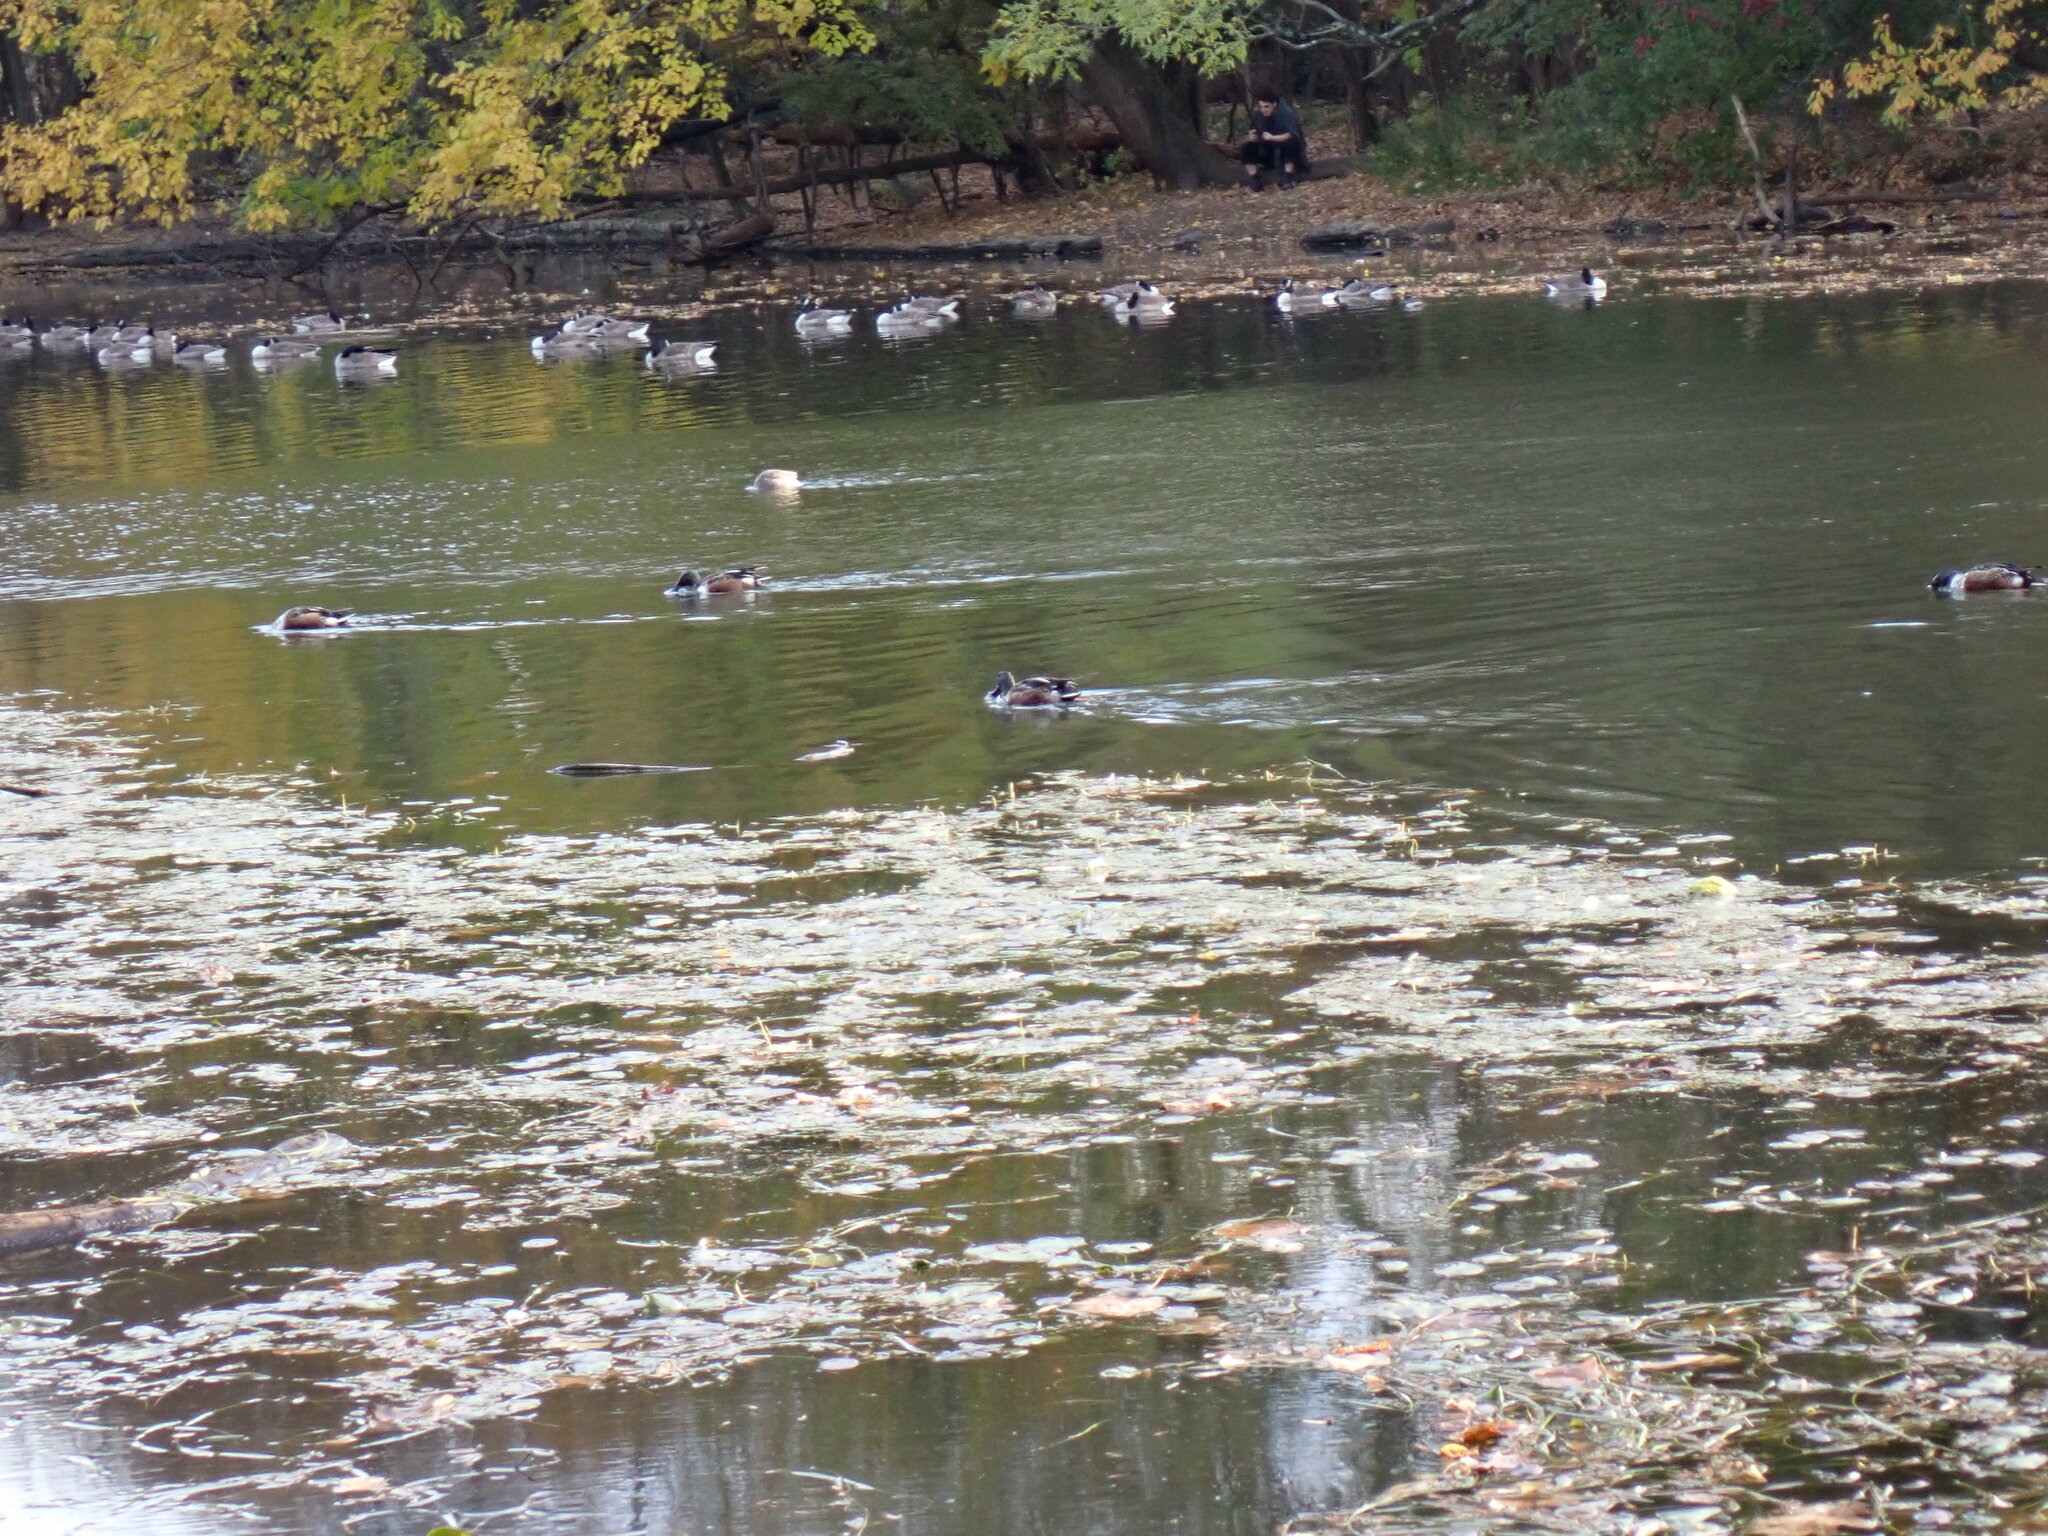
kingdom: Animalia
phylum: Chordata
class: Aves
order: Anseriformes
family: Anatidae
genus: Spatula
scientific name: Spatula clypeata
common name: Northern shoveler
